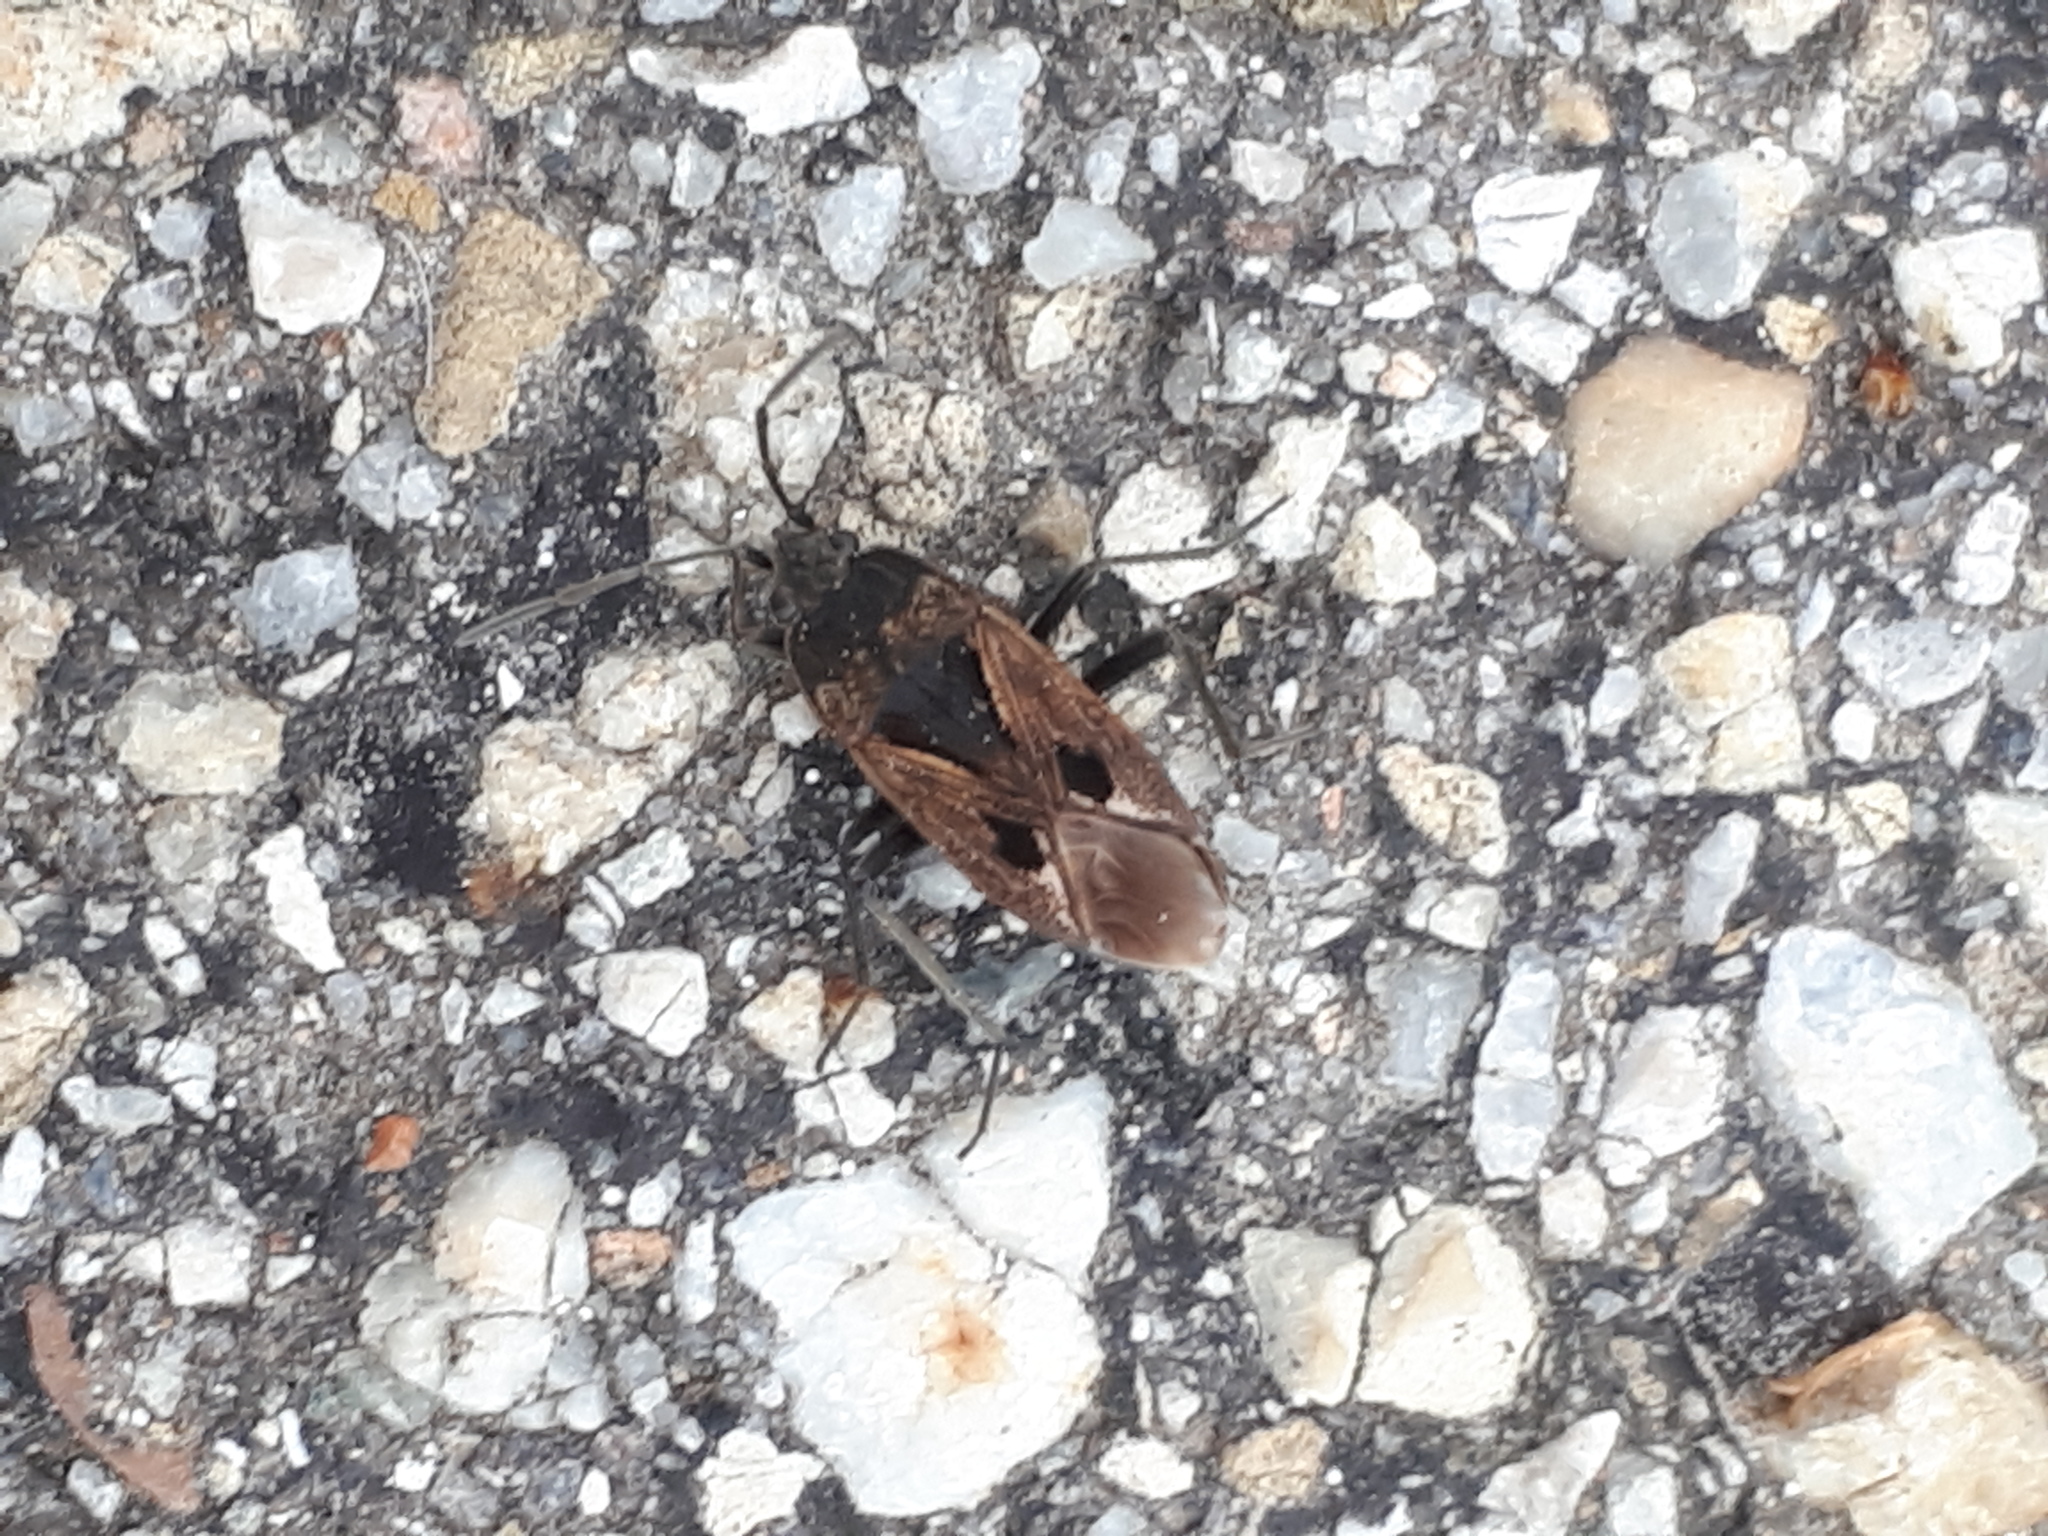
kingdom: Animalia
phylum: Arthropoda
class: Insecta
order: Hemiptera
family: Rhyparochromidae
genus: Rhyparochromus
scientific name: Rhyparochromus pini
